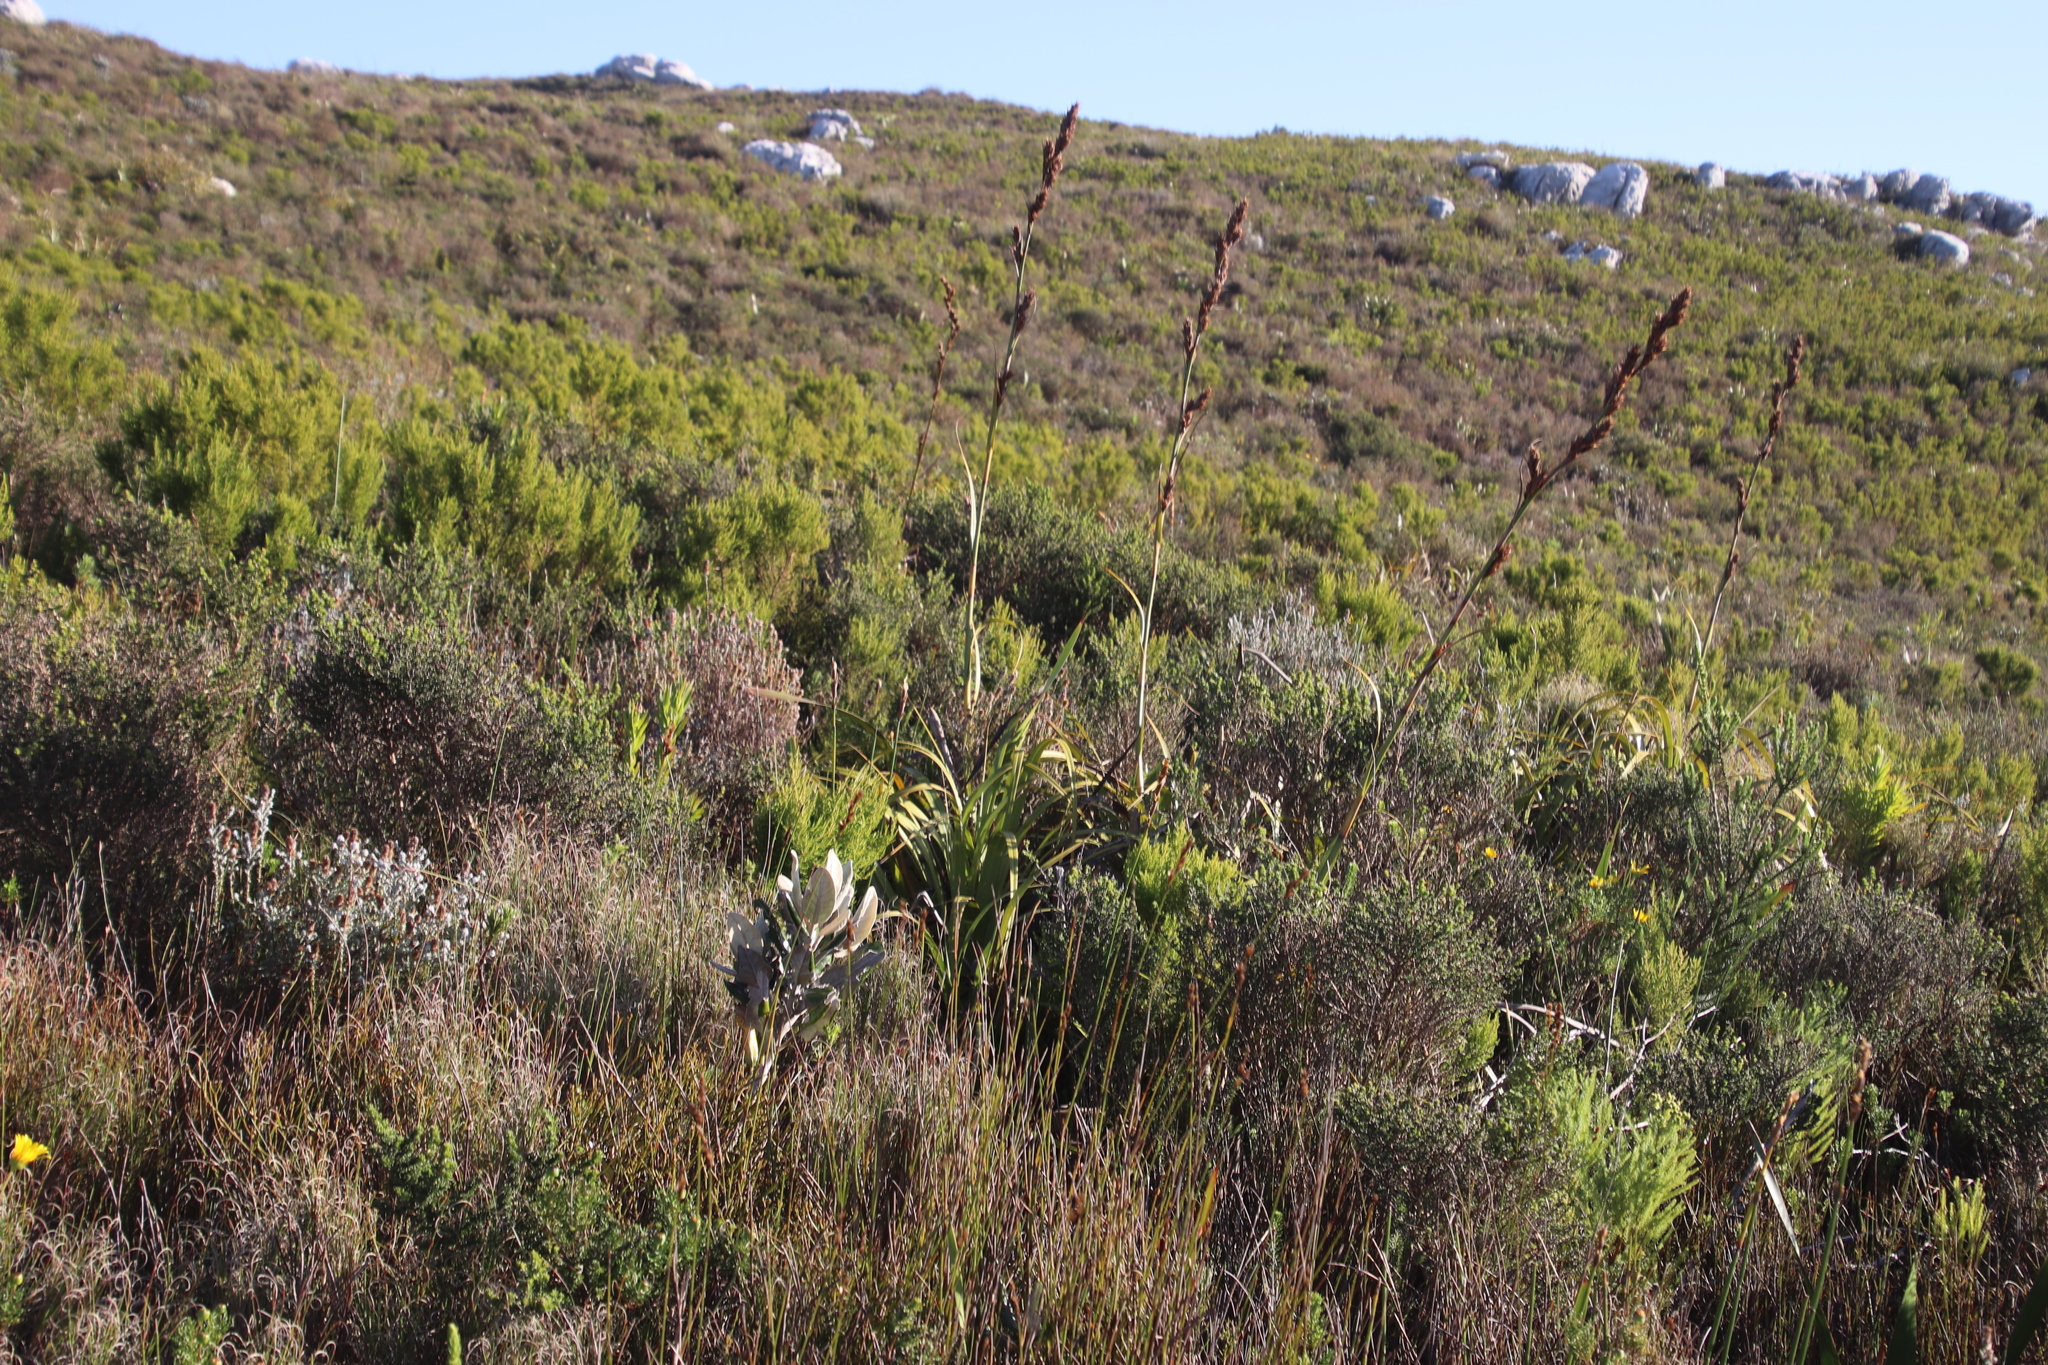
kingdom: Plantae
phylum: Tracheophyta
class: Liliopsida
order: Poales
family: Cyperaceae
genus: Tetraria
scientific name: Tetraria thermalis
